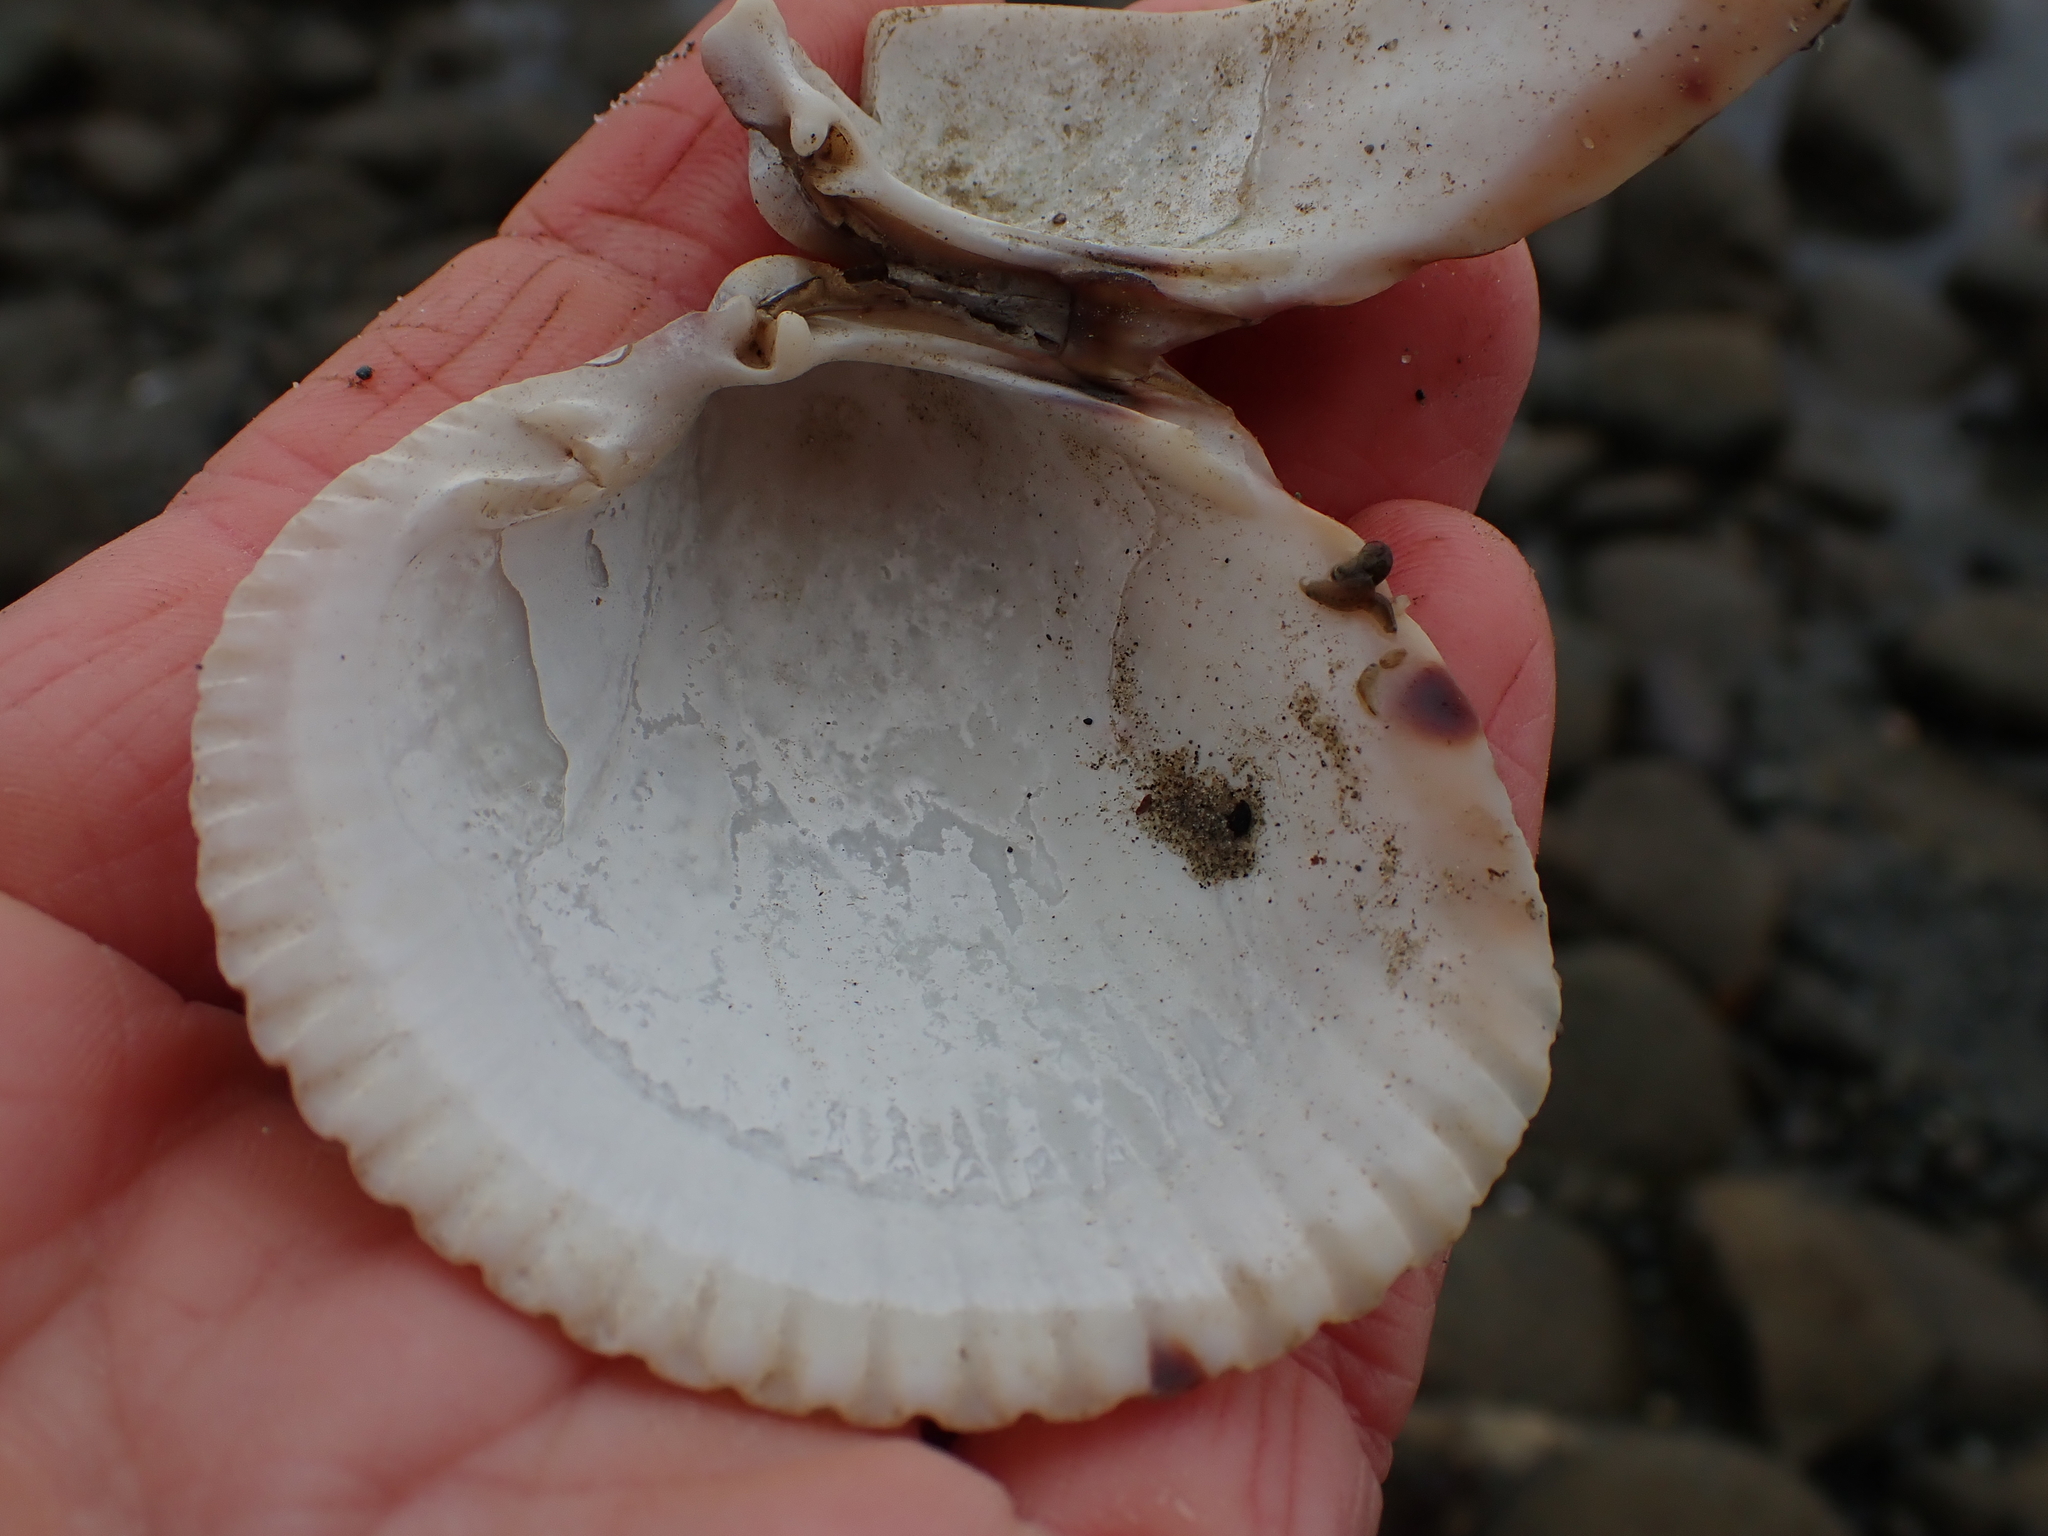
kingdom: Animalia
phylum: Mollusca
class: Bivalvia
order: Cardiida
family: Cardiidae
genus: Clinocardium
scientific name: Clinocardium nuttallii
